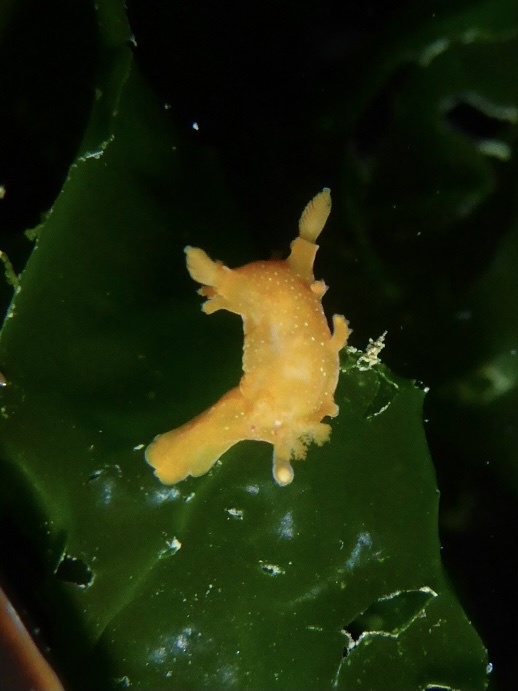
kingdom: Animalia
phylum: Mollusca
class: Gastropoda
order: Nudibranchia
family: Polyceridae
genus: Triopha
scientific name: Triopha maculata
